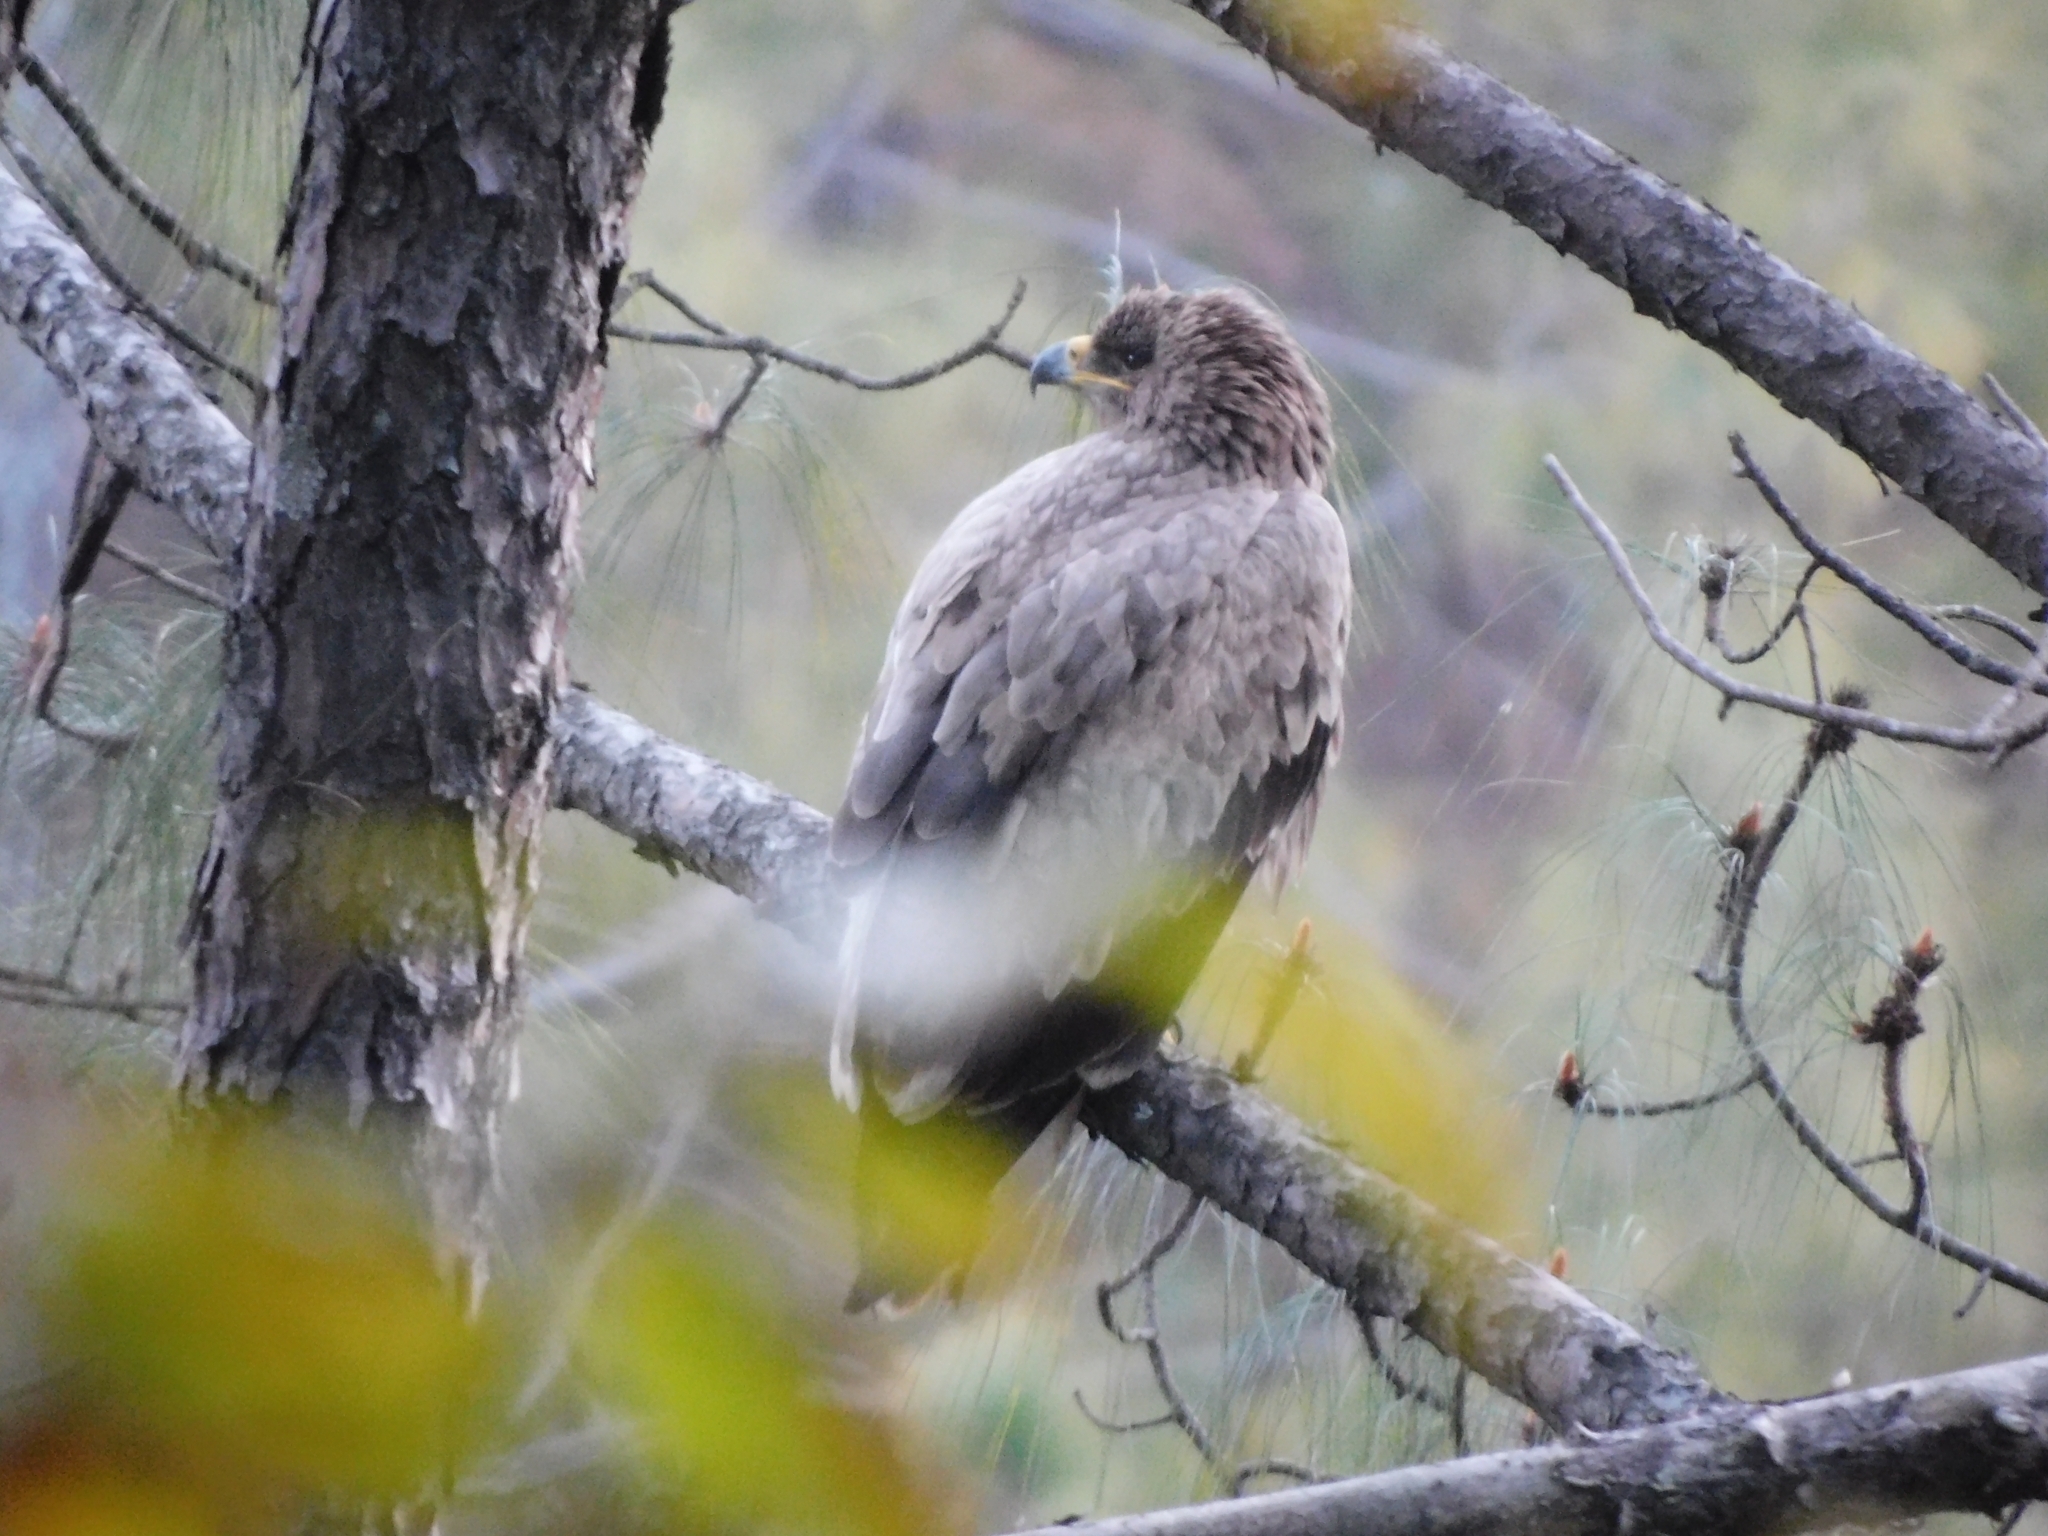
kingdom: Animalia
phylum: Chordata
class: Aves
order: Accipitriformes
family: Accipitridae
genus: Aquila
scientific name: Aquila nipalensis
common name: Steppe eagle
